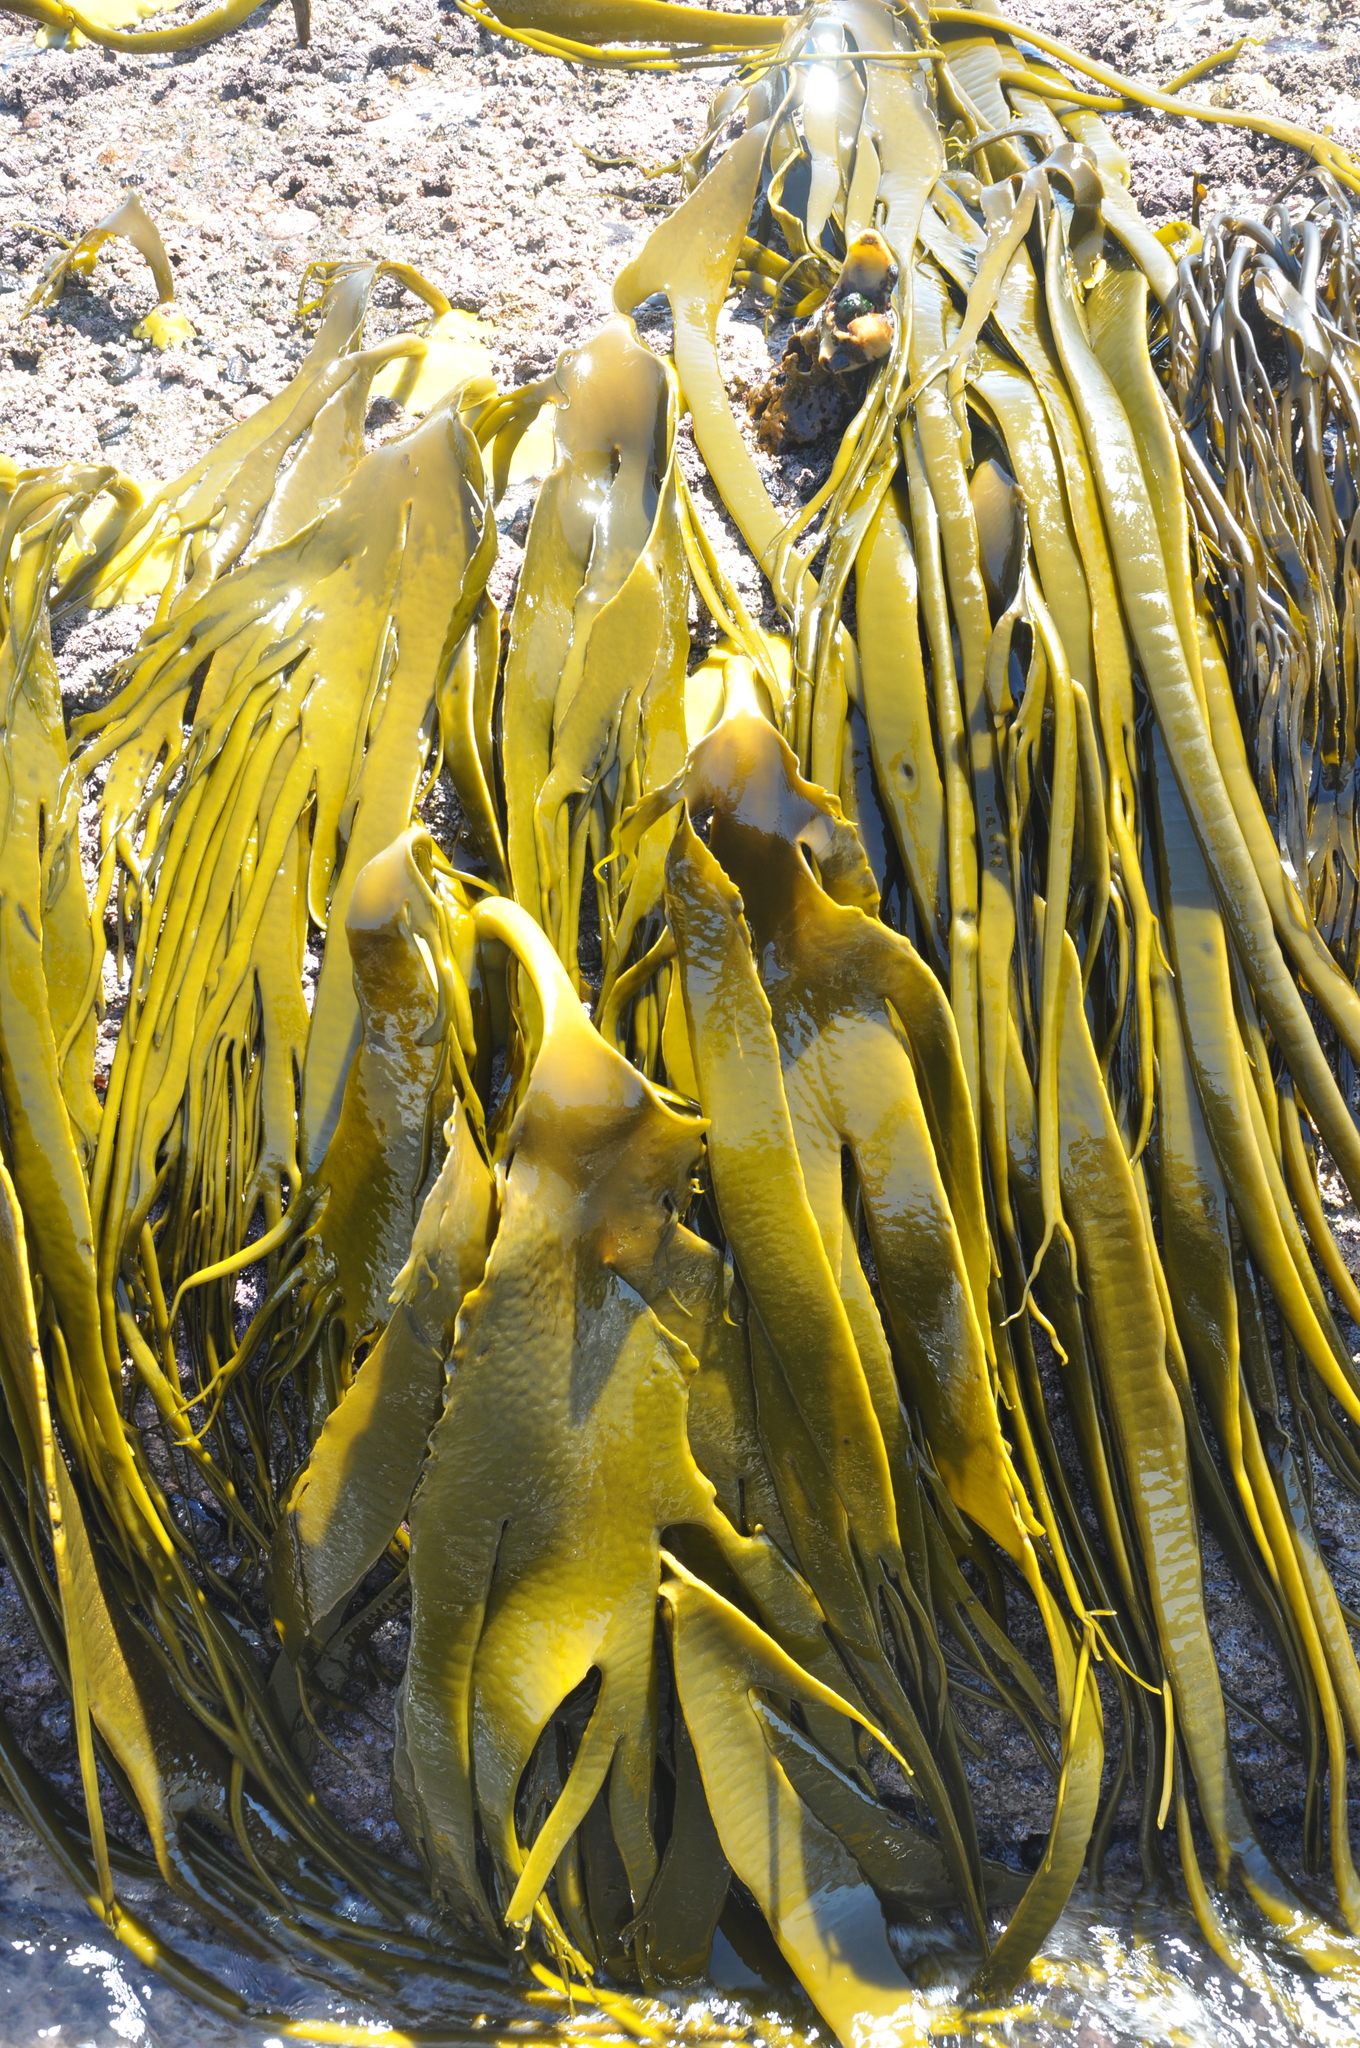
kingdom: Chromista
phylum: Ochrophyta
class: Phaeophyceae
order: Fucales
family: Durvillaeaceae
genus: Durvillaea
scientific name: Durvillaea
